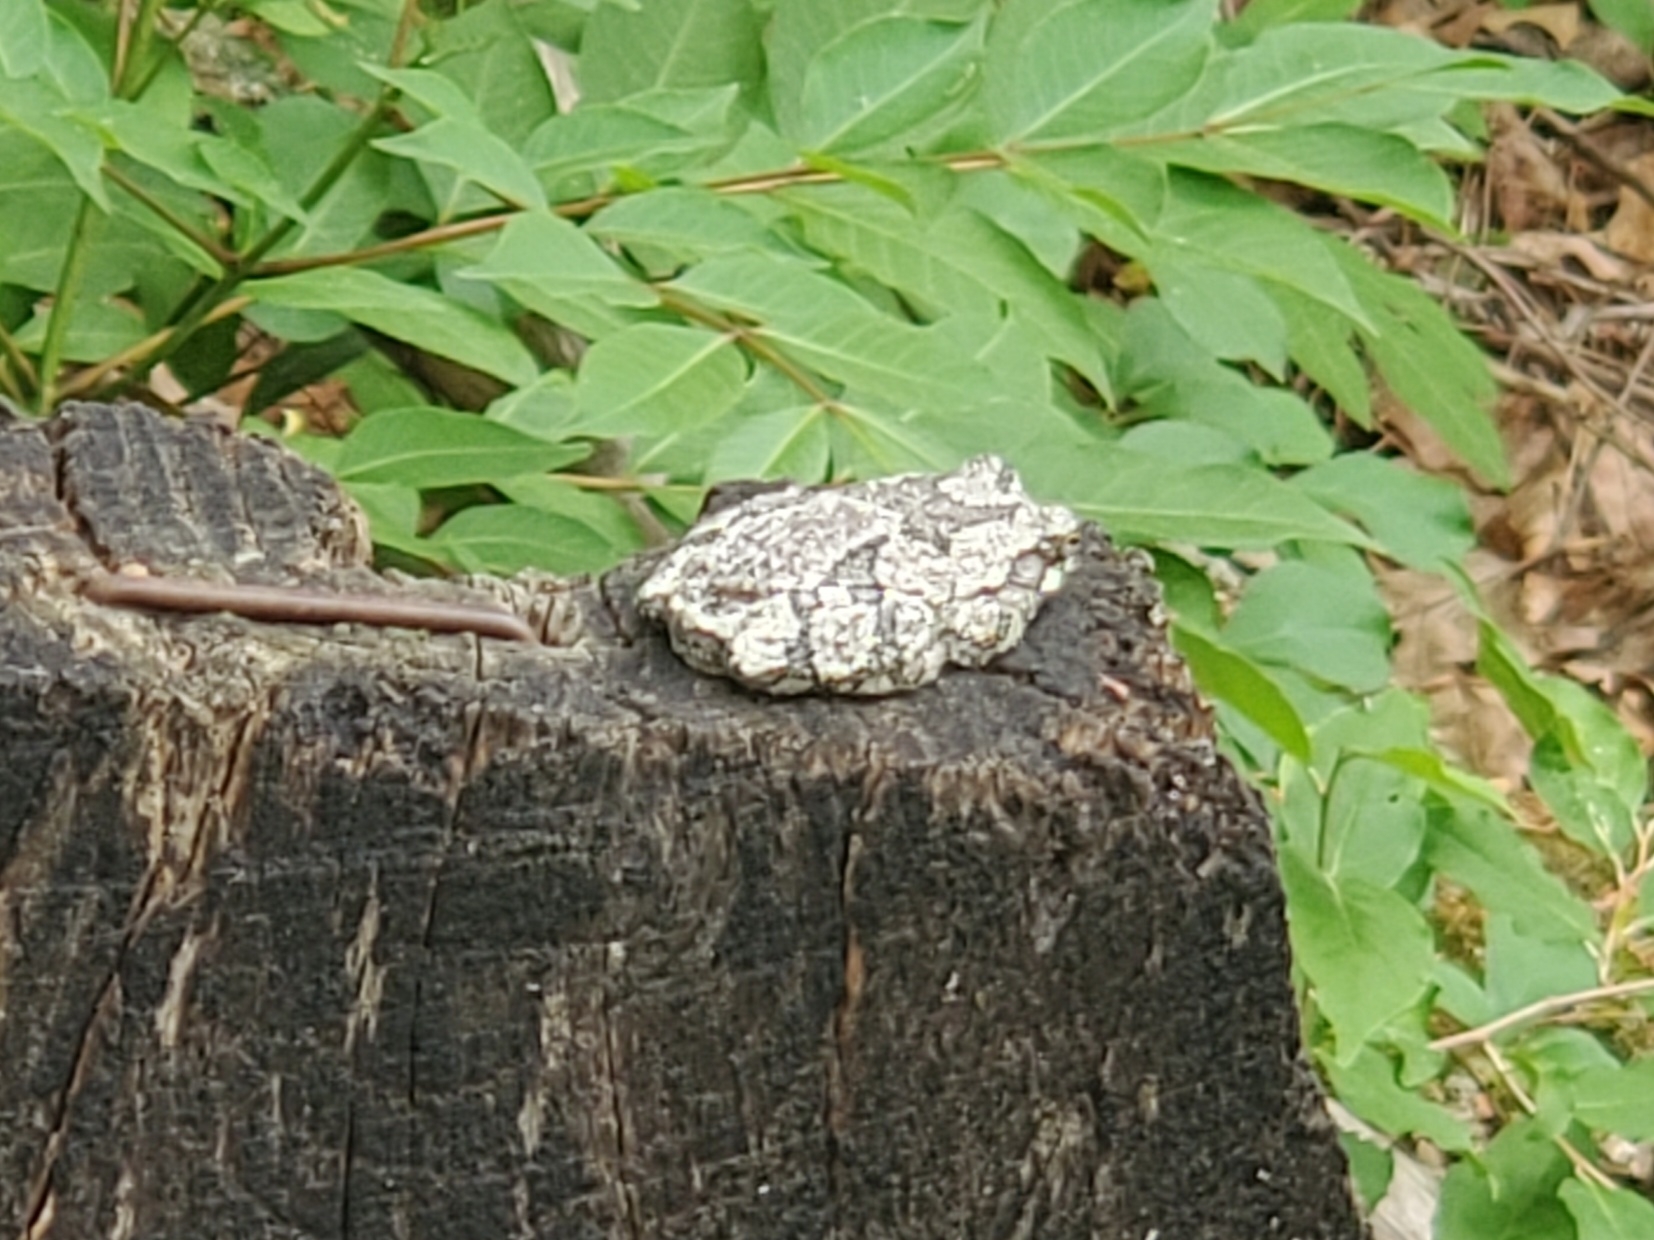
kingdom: Animalia
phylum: Chordata
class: Amphibia
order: Anura
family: Hylidae
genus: Dryophytes
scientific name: Dryophytes versicolor
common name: Gray treefrog
